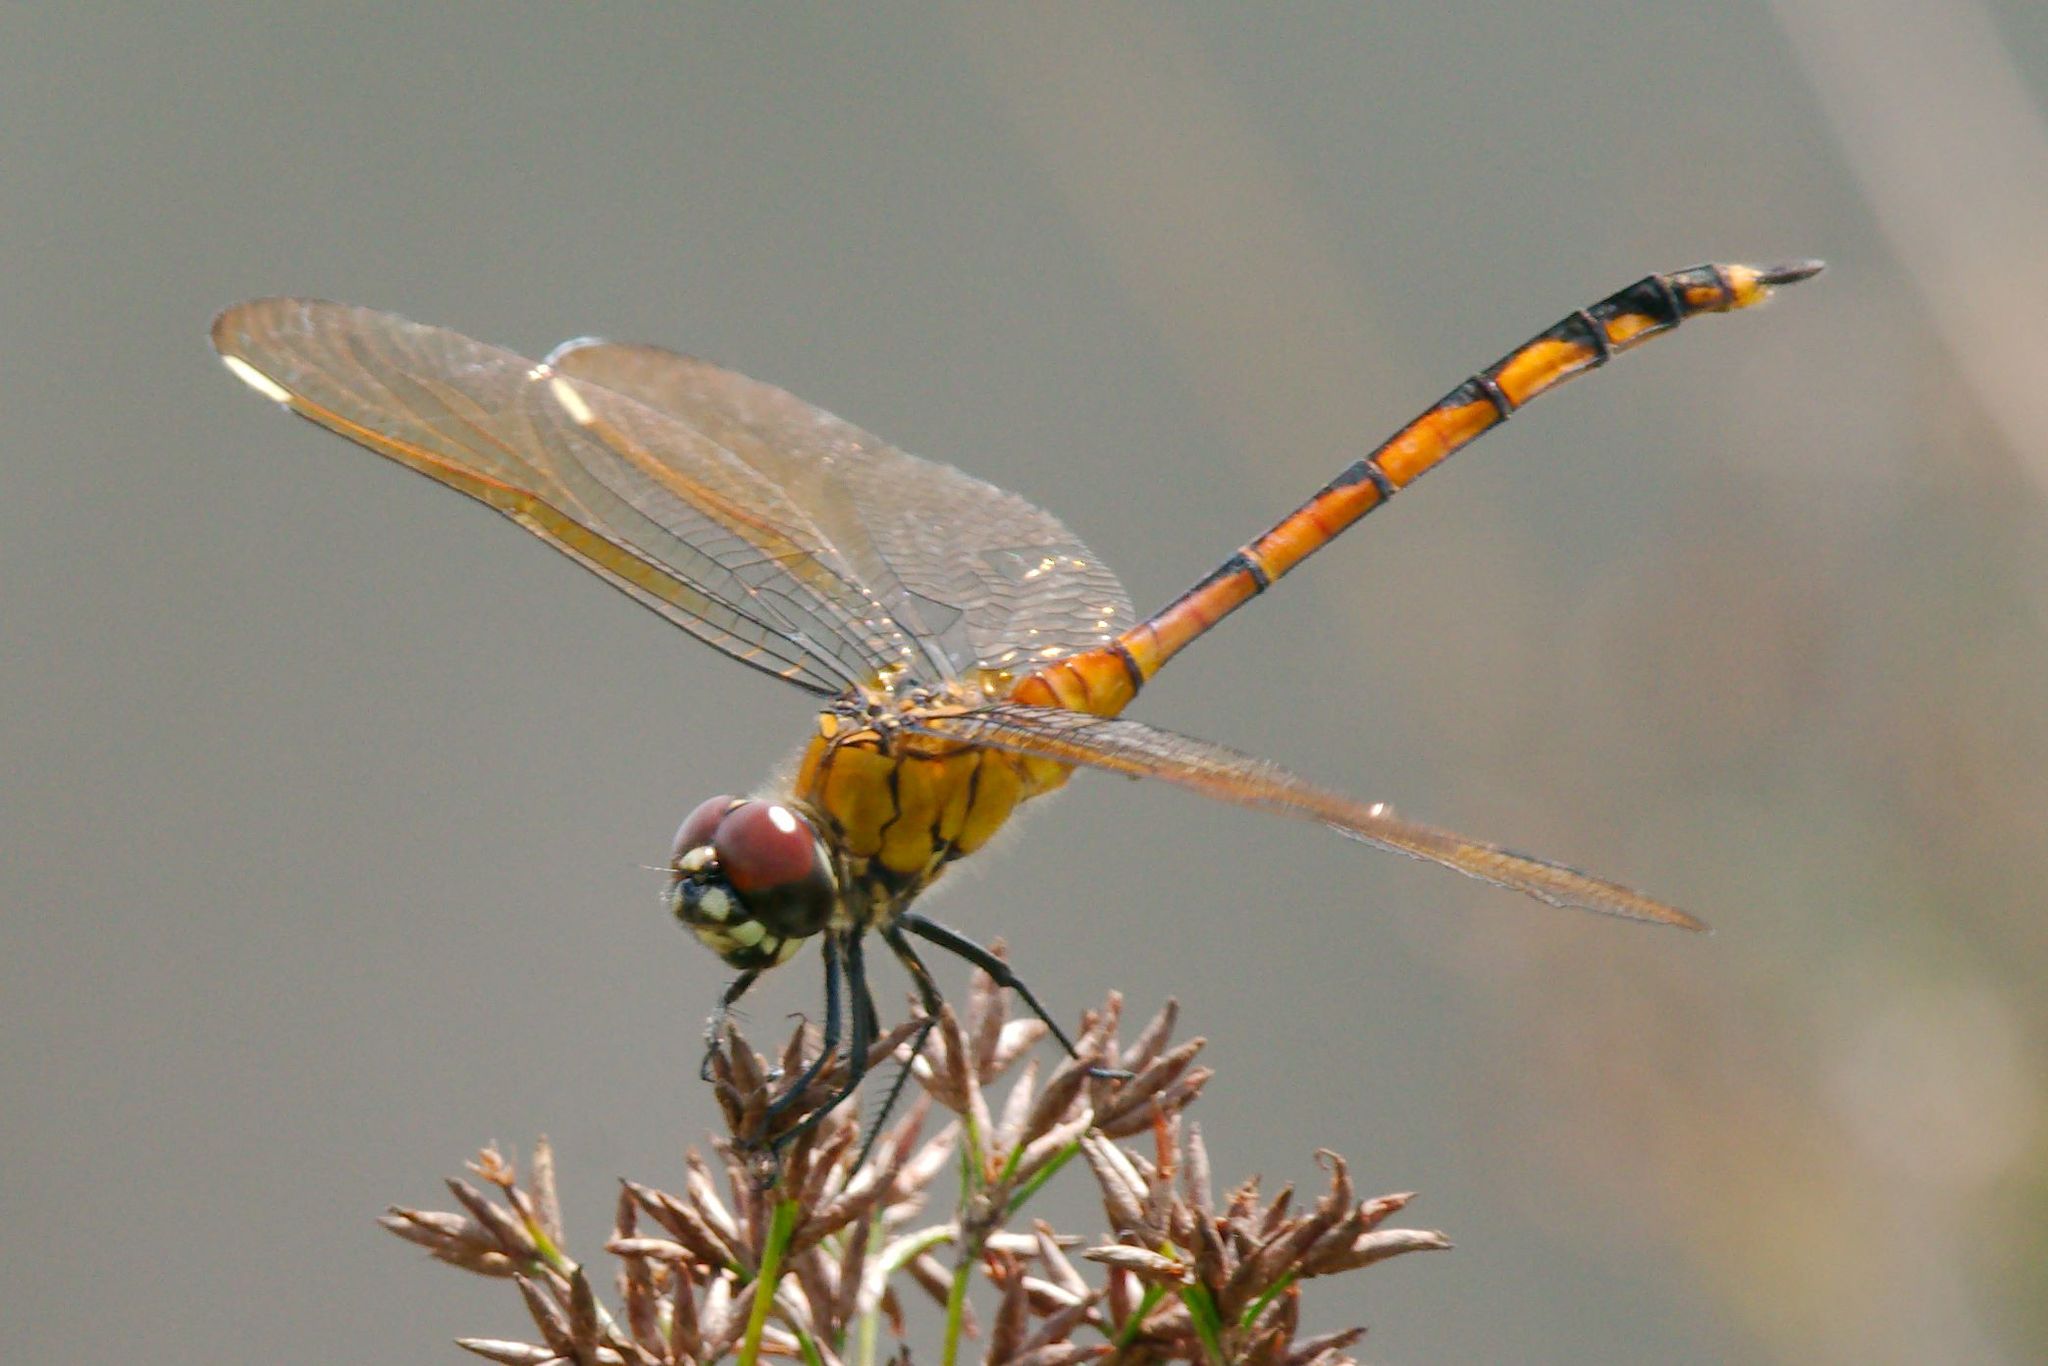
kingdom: Animalia
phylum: Arthropoda
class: Insecta
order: Odonata
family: Libellulidae
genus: Brachymesia
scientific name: Brachymesia gravida
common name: Four-spotted pennant
